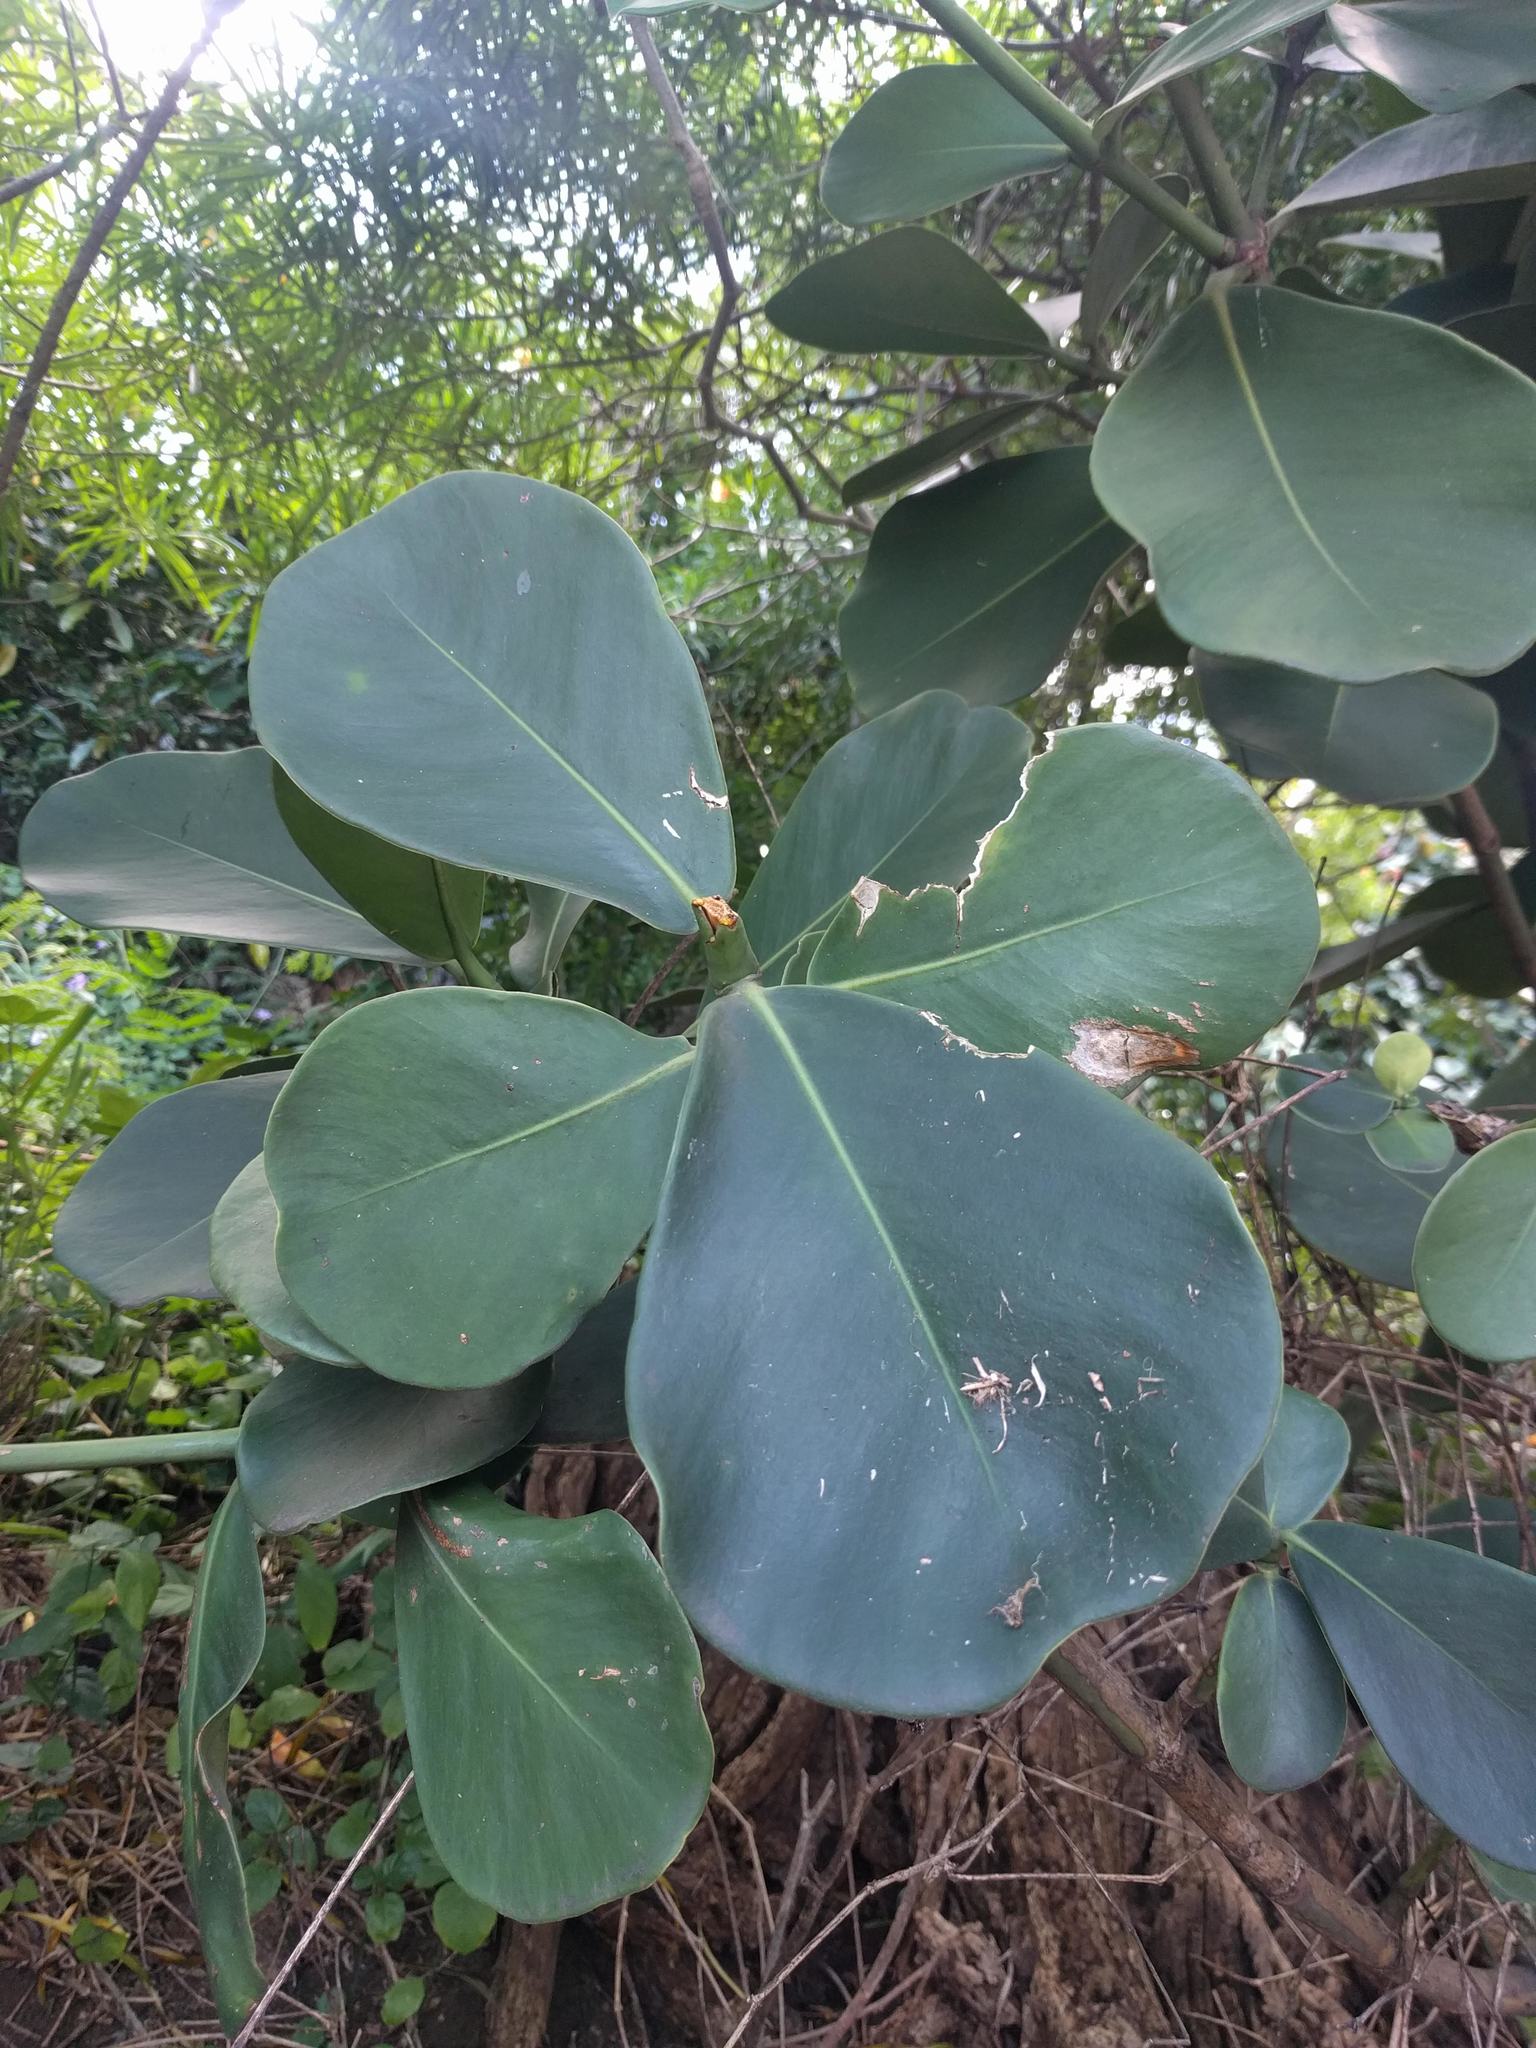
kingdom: Plantae
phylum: Tracheophyta
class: Magnoliopsida
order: Malpighiales
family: Clusiaceae
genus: Clusia
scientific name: Clusia rosea
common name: Scotch attorney
